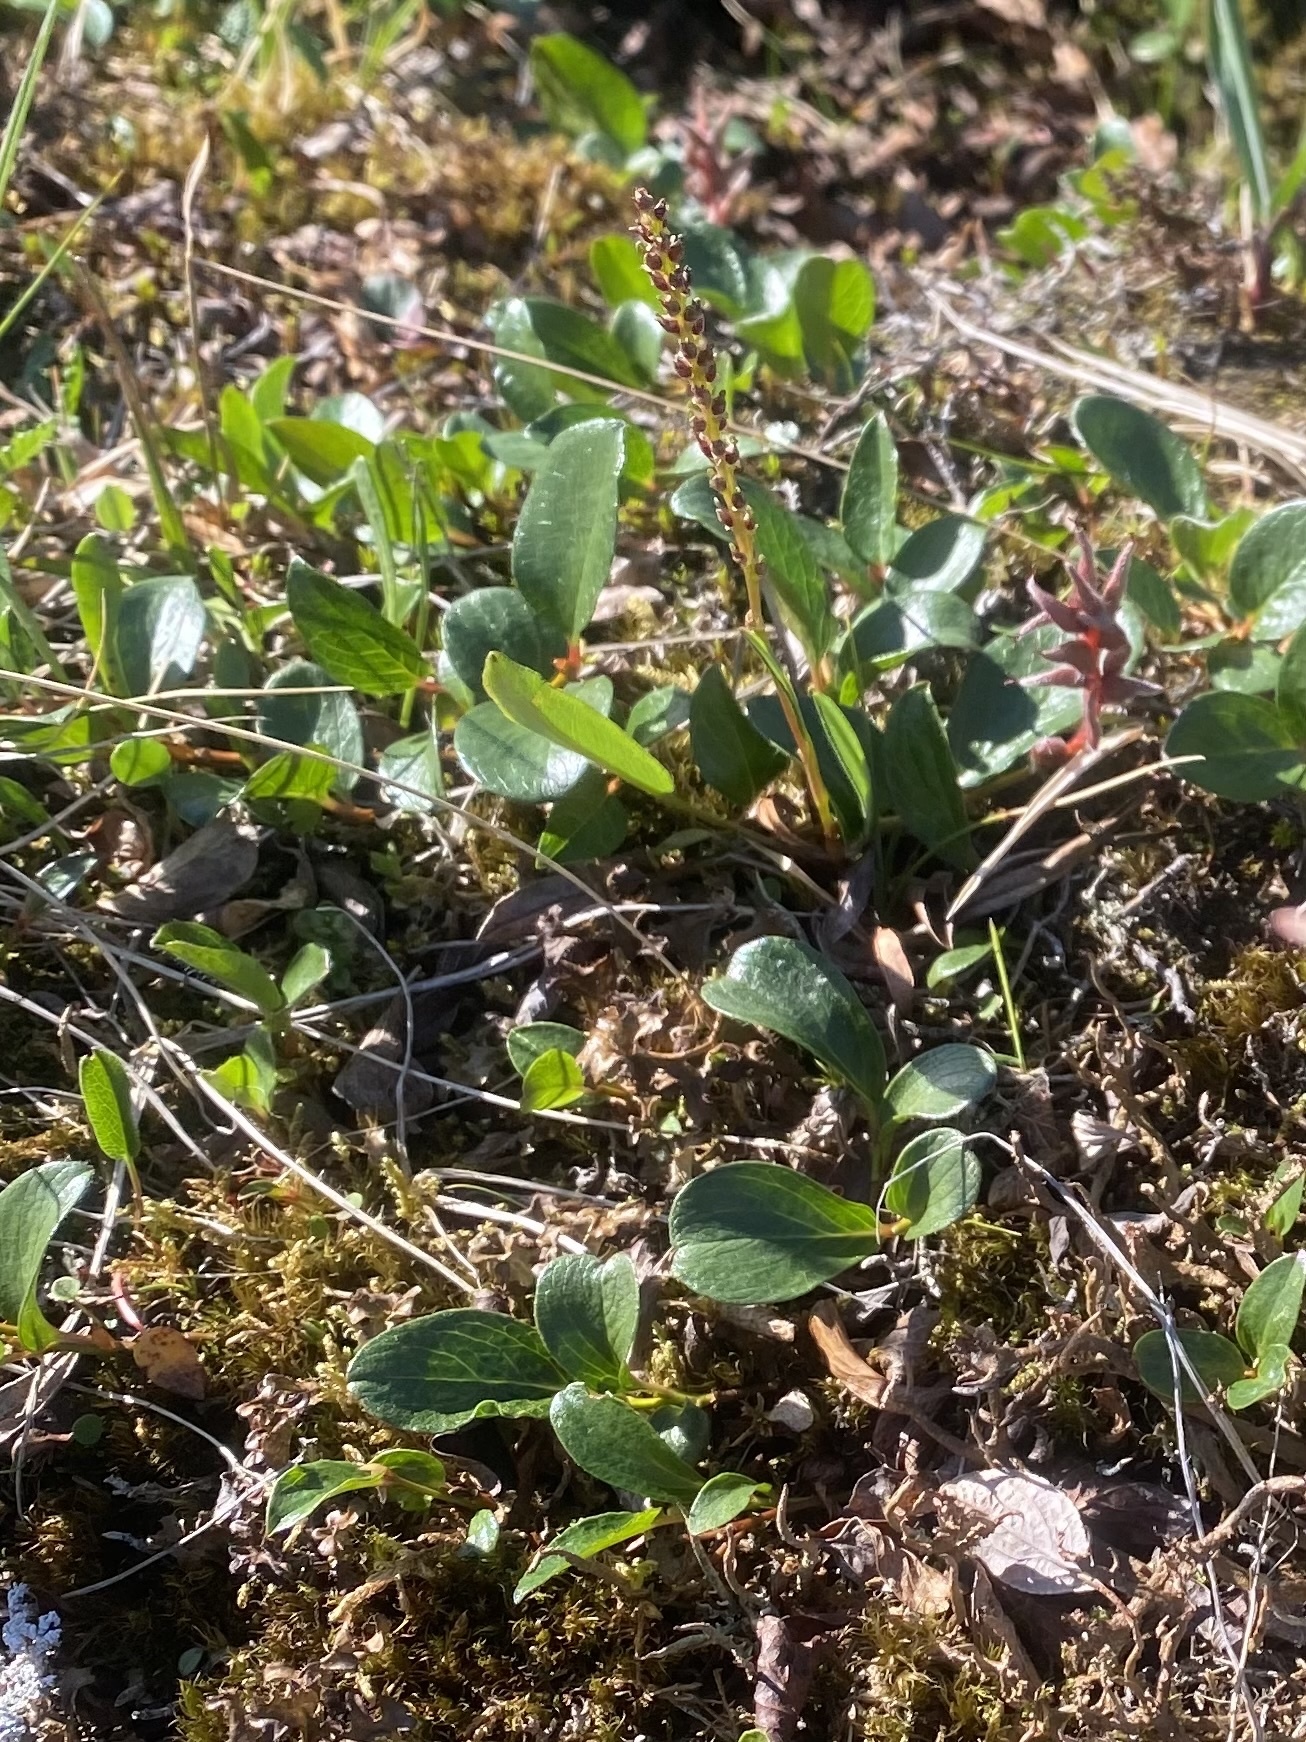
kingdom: Plantae
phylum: Tracheophyta
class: Magnoliopsida
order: Malpighiales
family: Salicaceae
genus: Salix
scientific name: Salix polaris
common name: Polar willow
